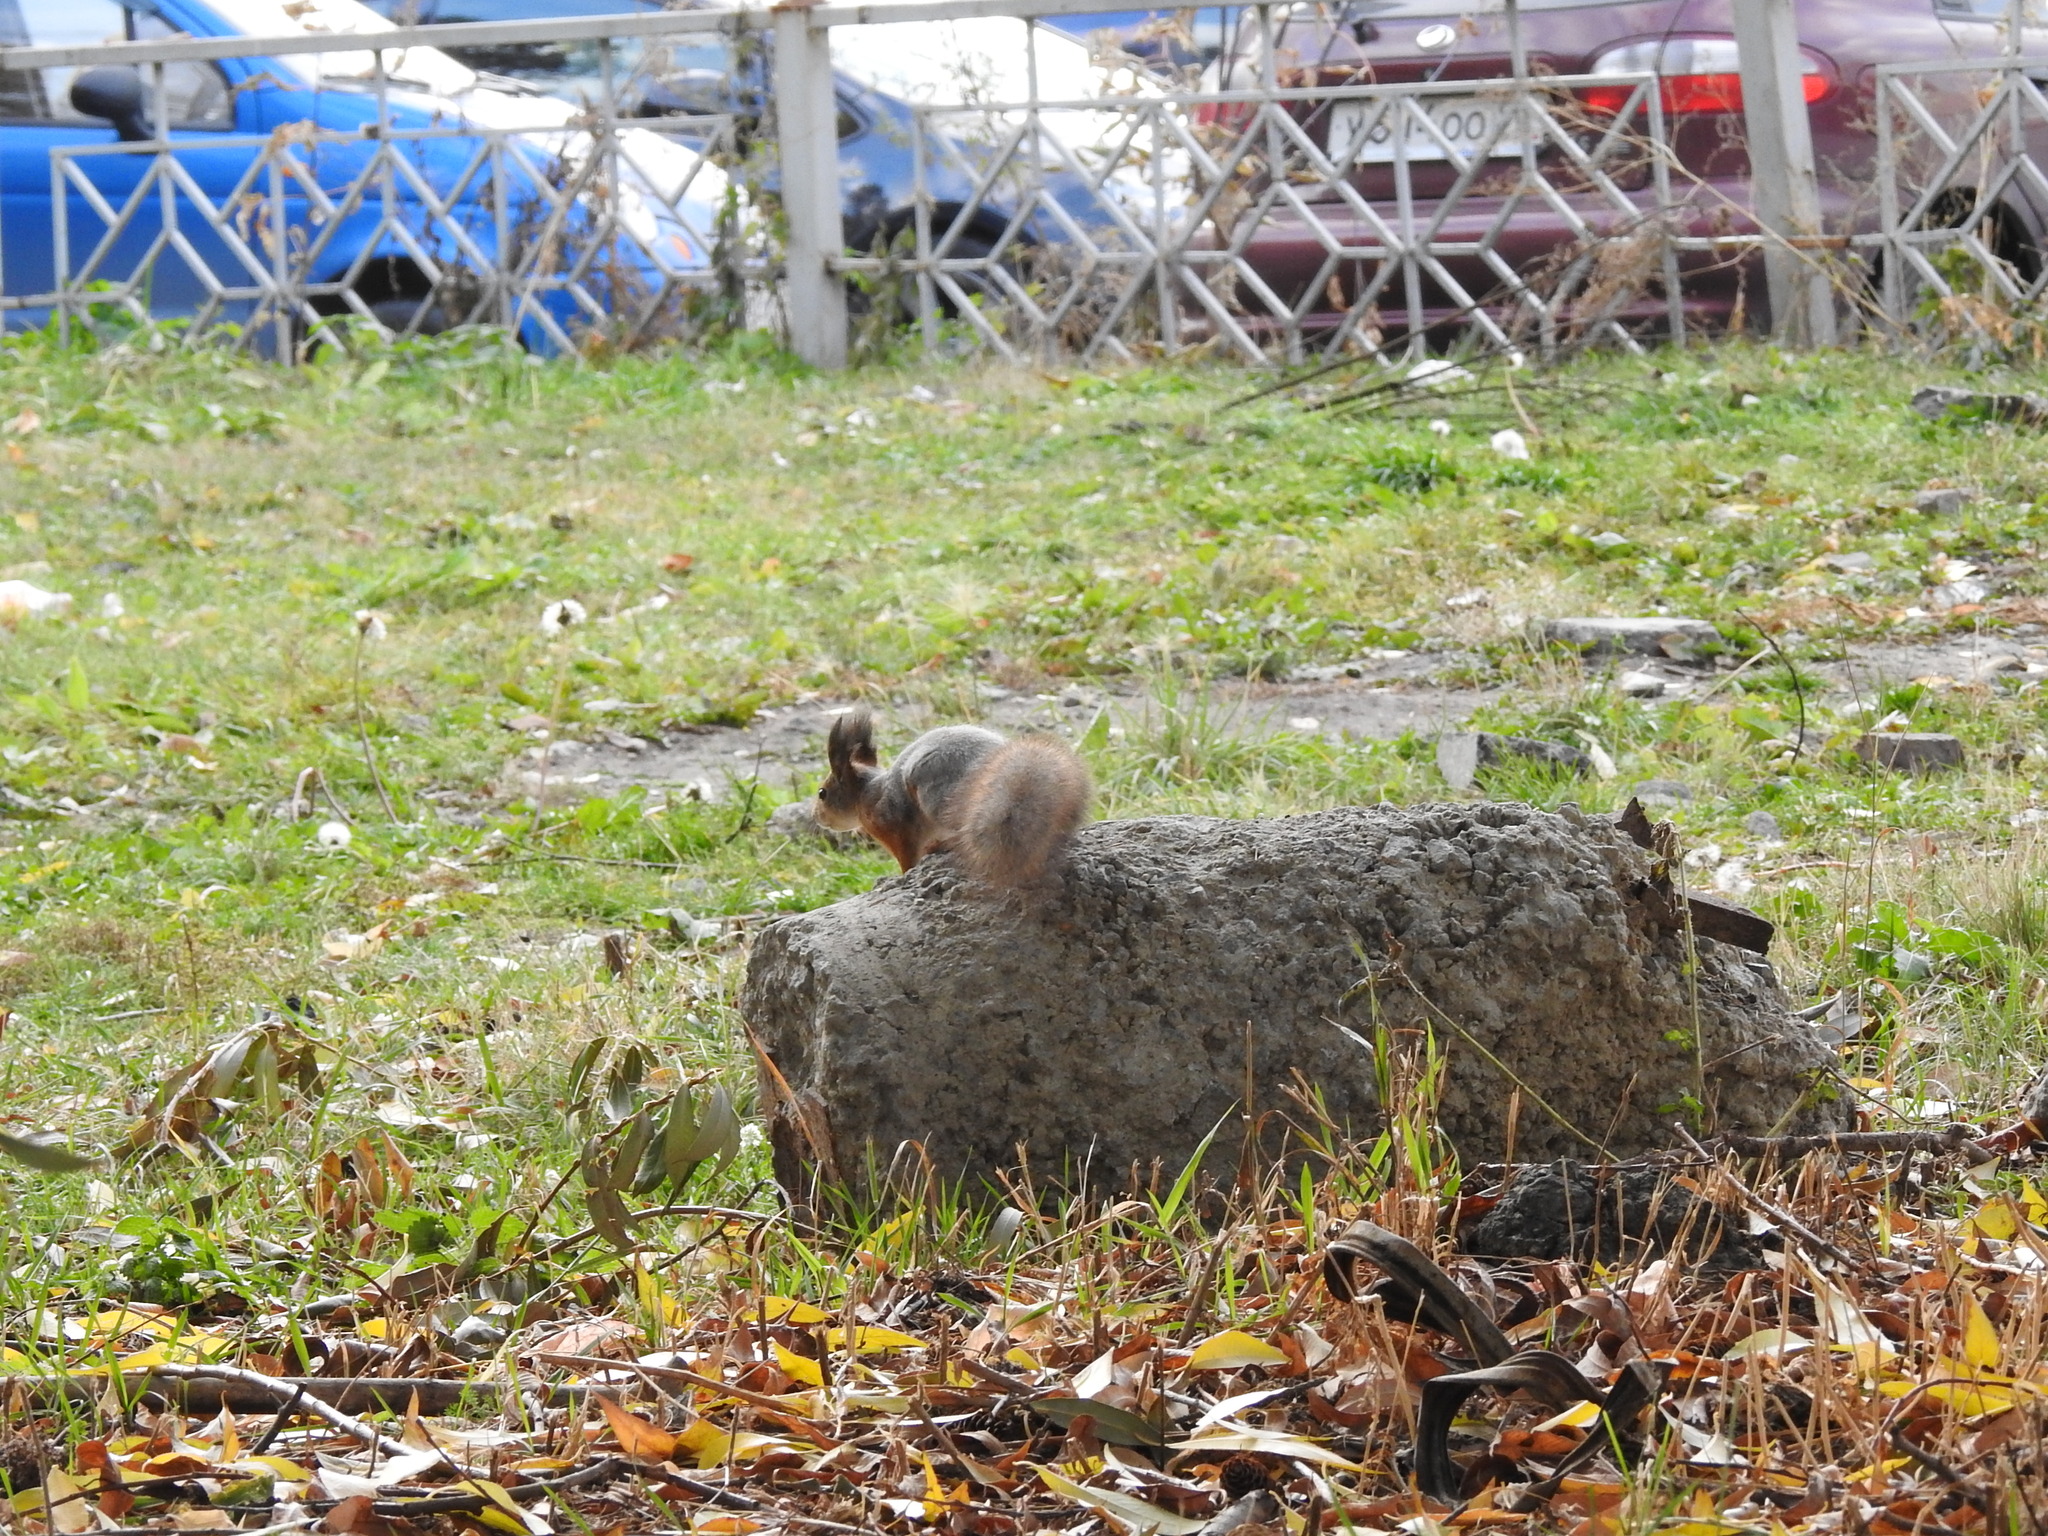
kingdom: Animalia
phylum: Chordata
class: Mammalia
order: Rodentia
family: Sciuridae
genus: Sciurus
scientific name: Sciurus vulgaris
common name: Eurasian red squirrel
